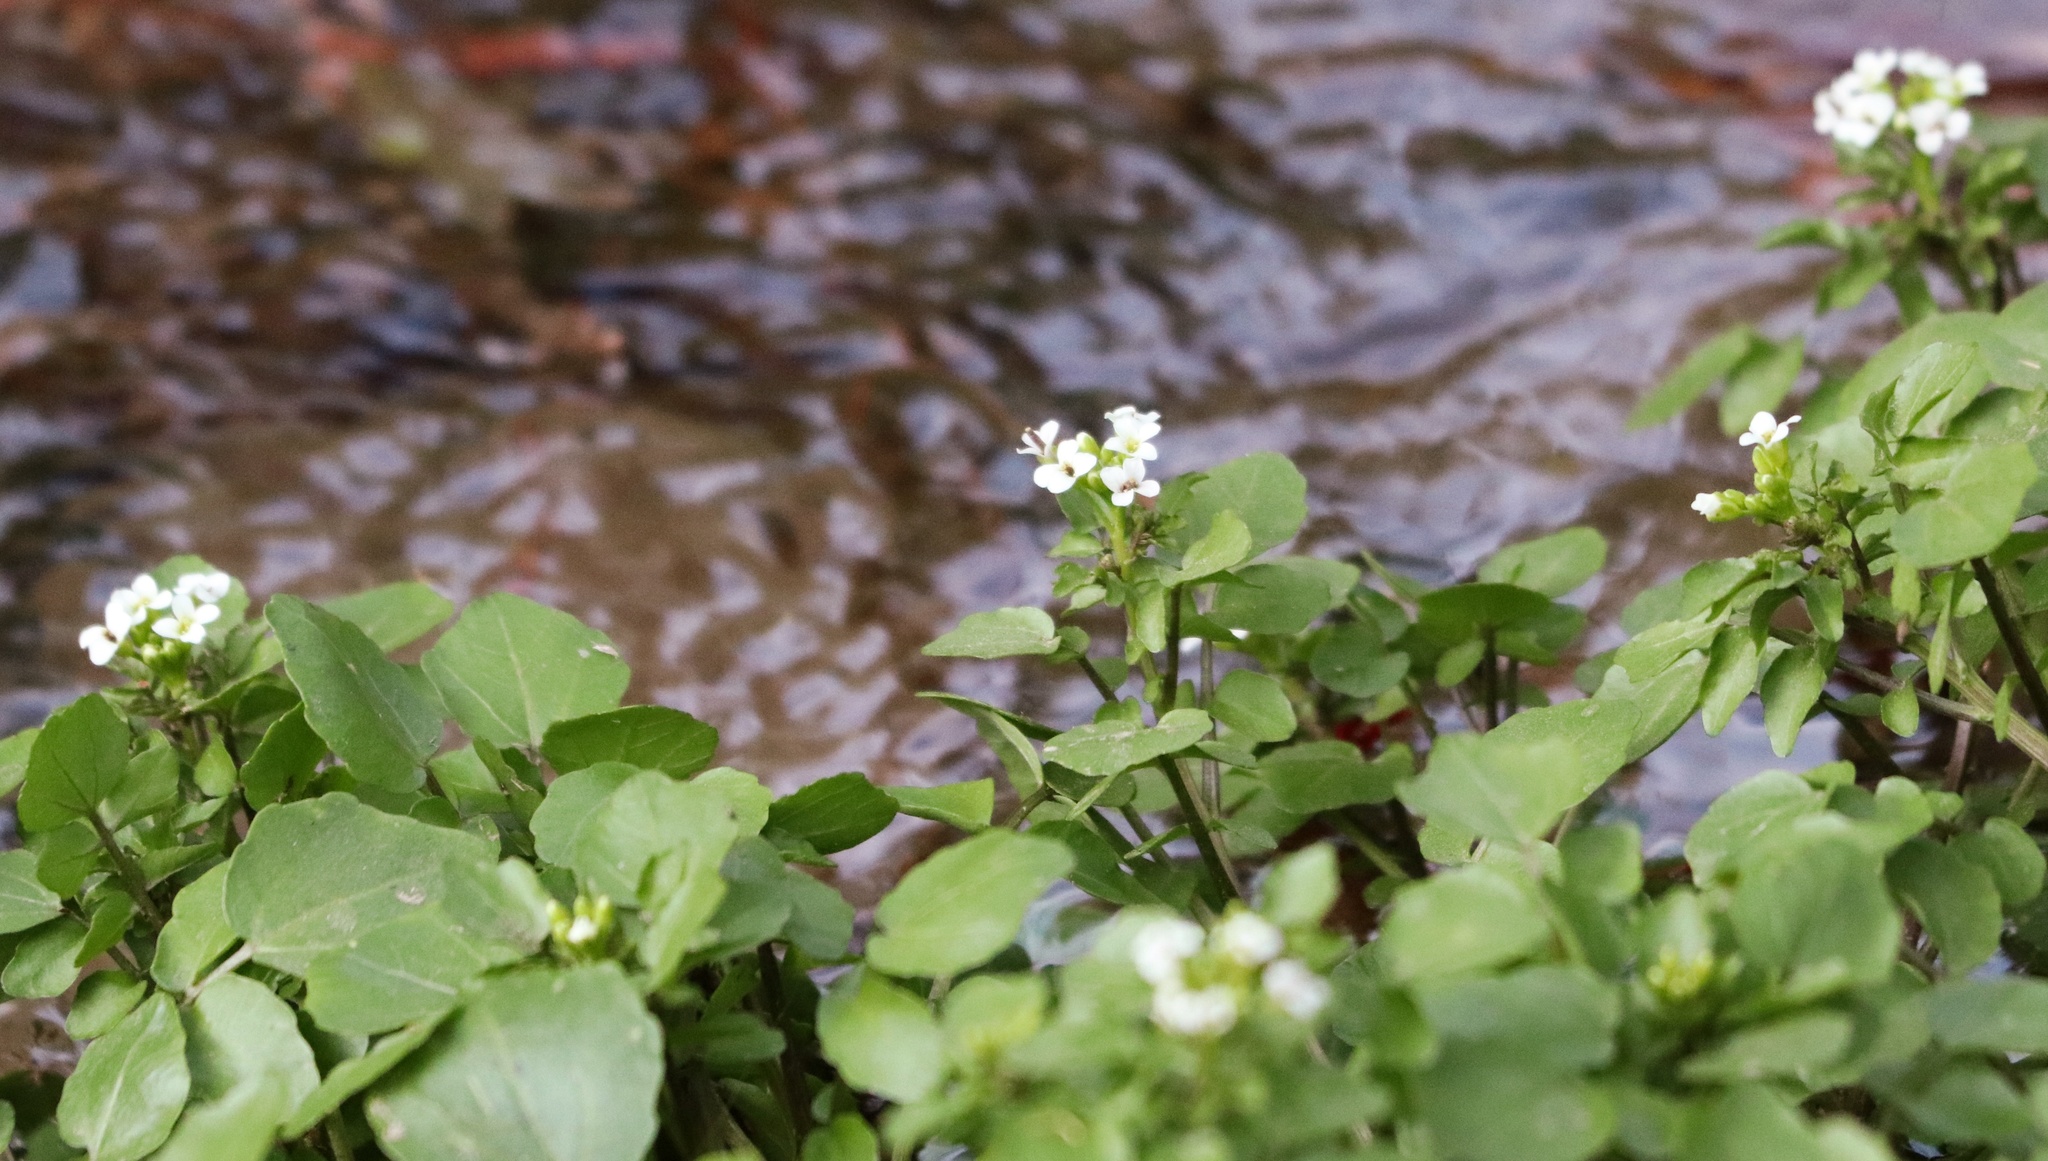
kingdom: Plantae
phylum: Tracheophyta
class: Magnoliopsida
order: Brassicales
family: Brassicaceae
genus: Nasturtium
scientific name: Nasturtium officinale
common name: Watercress
